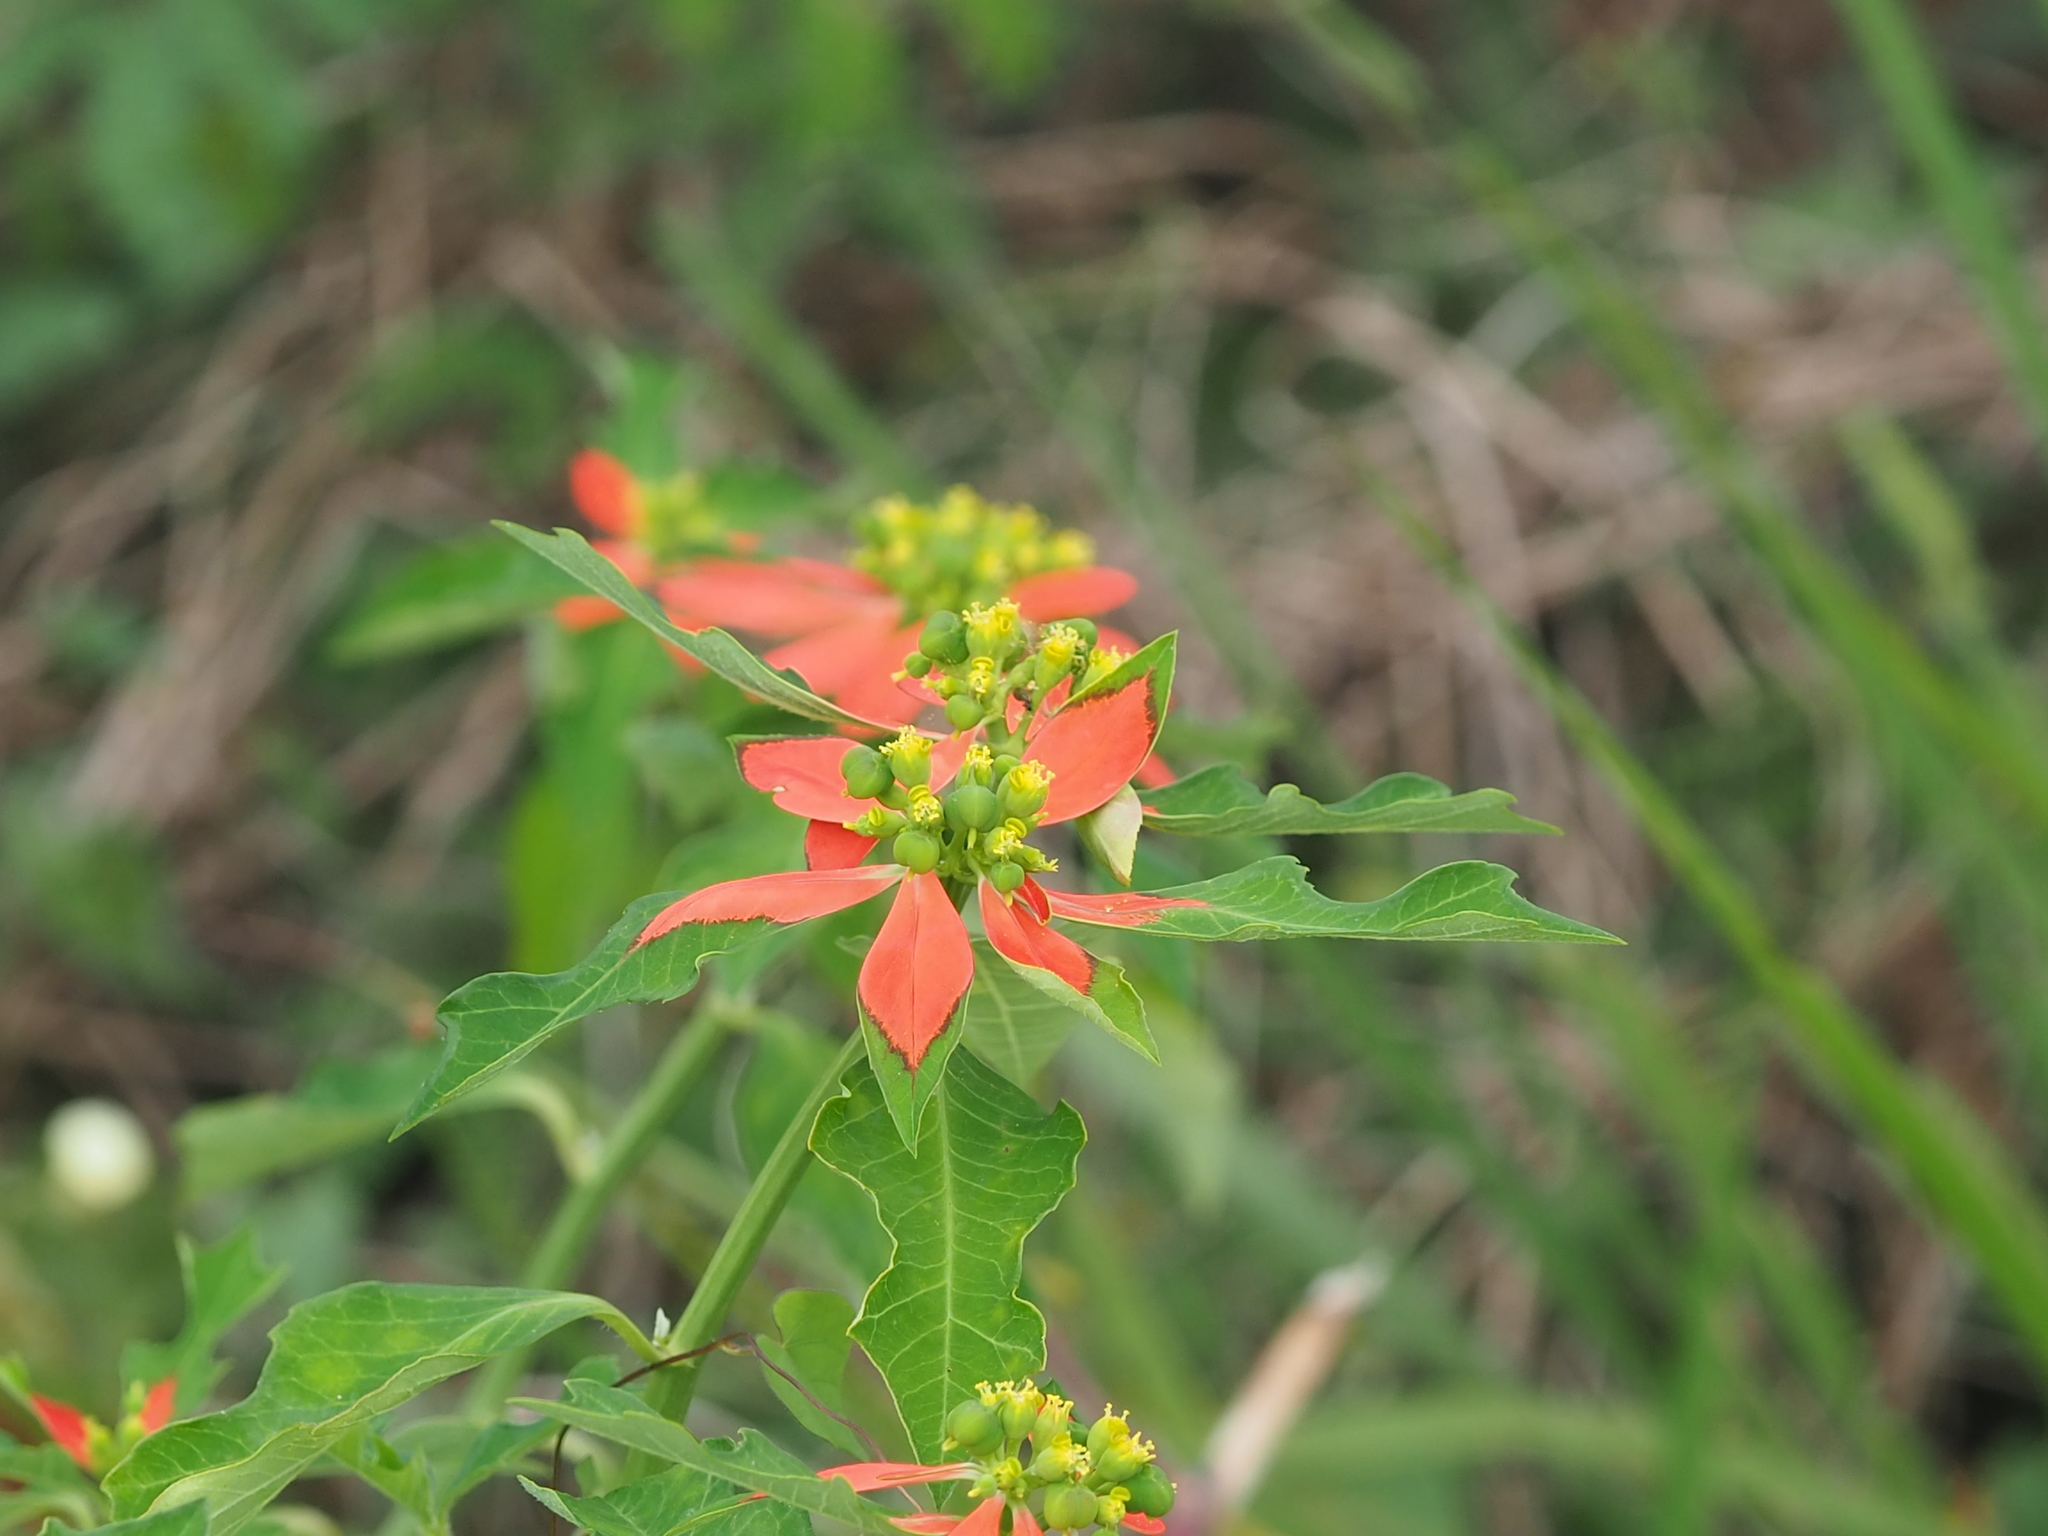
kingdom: Plantae
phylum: Tracheophyta
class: Magnoliopsida
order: Malpighiales
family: Euphorbiaceae
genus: Euphorbia
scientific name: Euphorbia heterophylla
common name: Mexican fireplant
